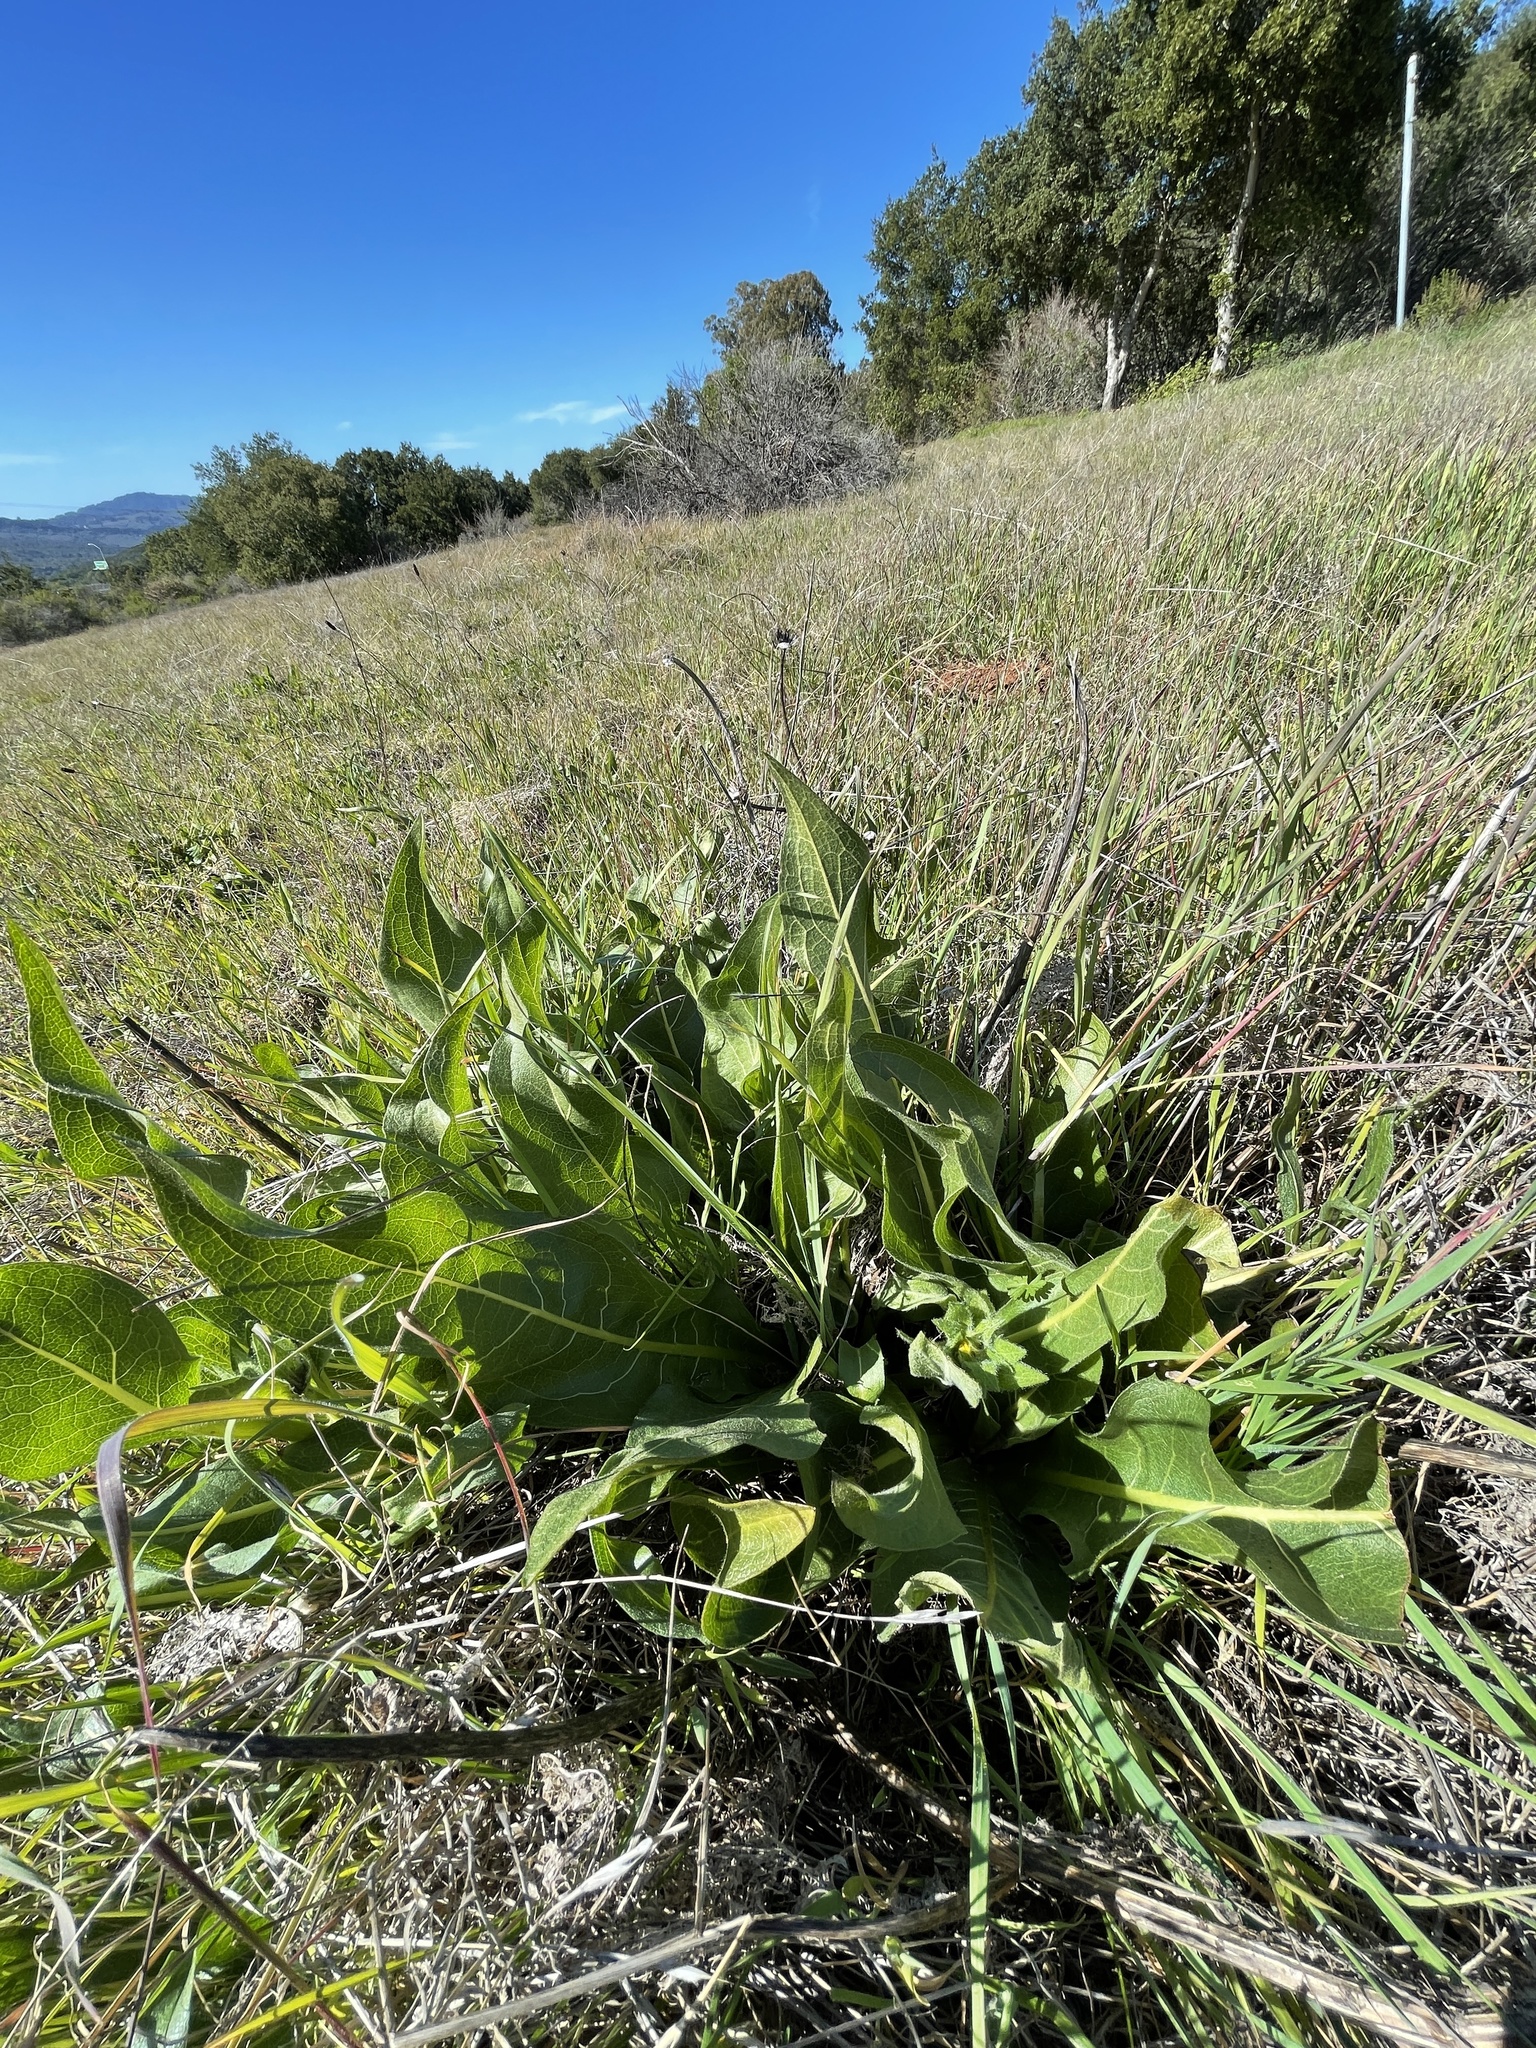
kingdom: Plantae
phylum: Tracheophyta
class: Magnoliopsida
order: Asterales
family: Asteraceae
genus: Wyethia
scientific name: Wyethia angustifolia
